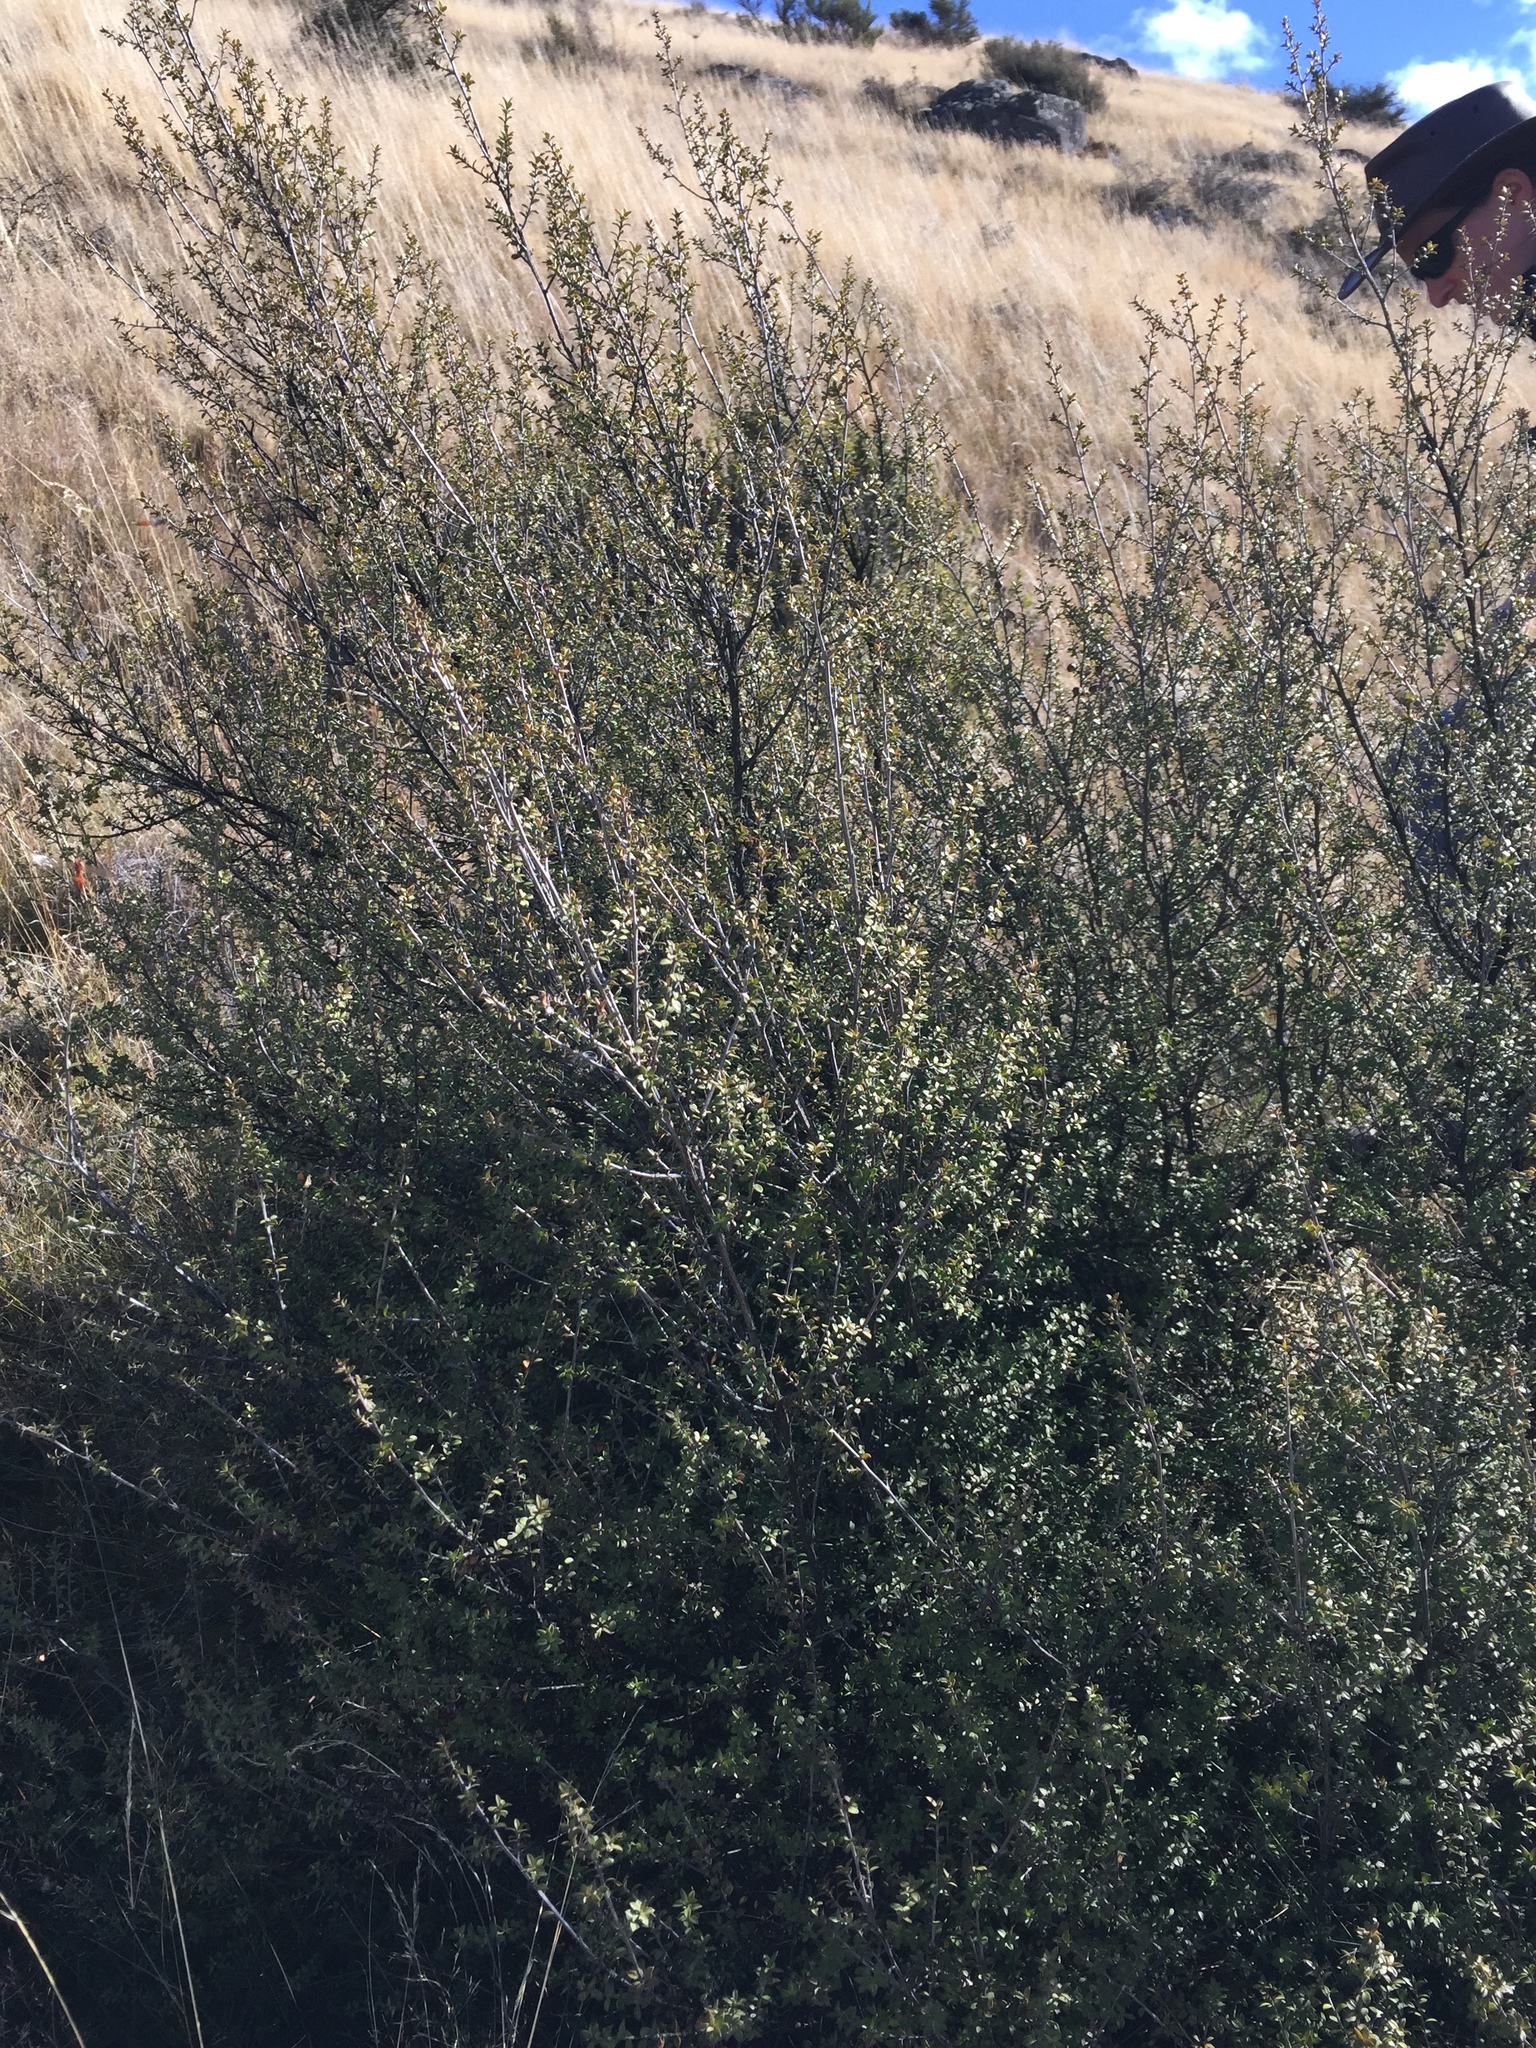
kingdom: Plantae
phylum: Tracheophyta
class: Magnoliopsida
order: Myrtales
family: Myrtaceae
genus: Leptospermum
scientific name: Leptospermum scoparium
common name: Broom tea-tree
